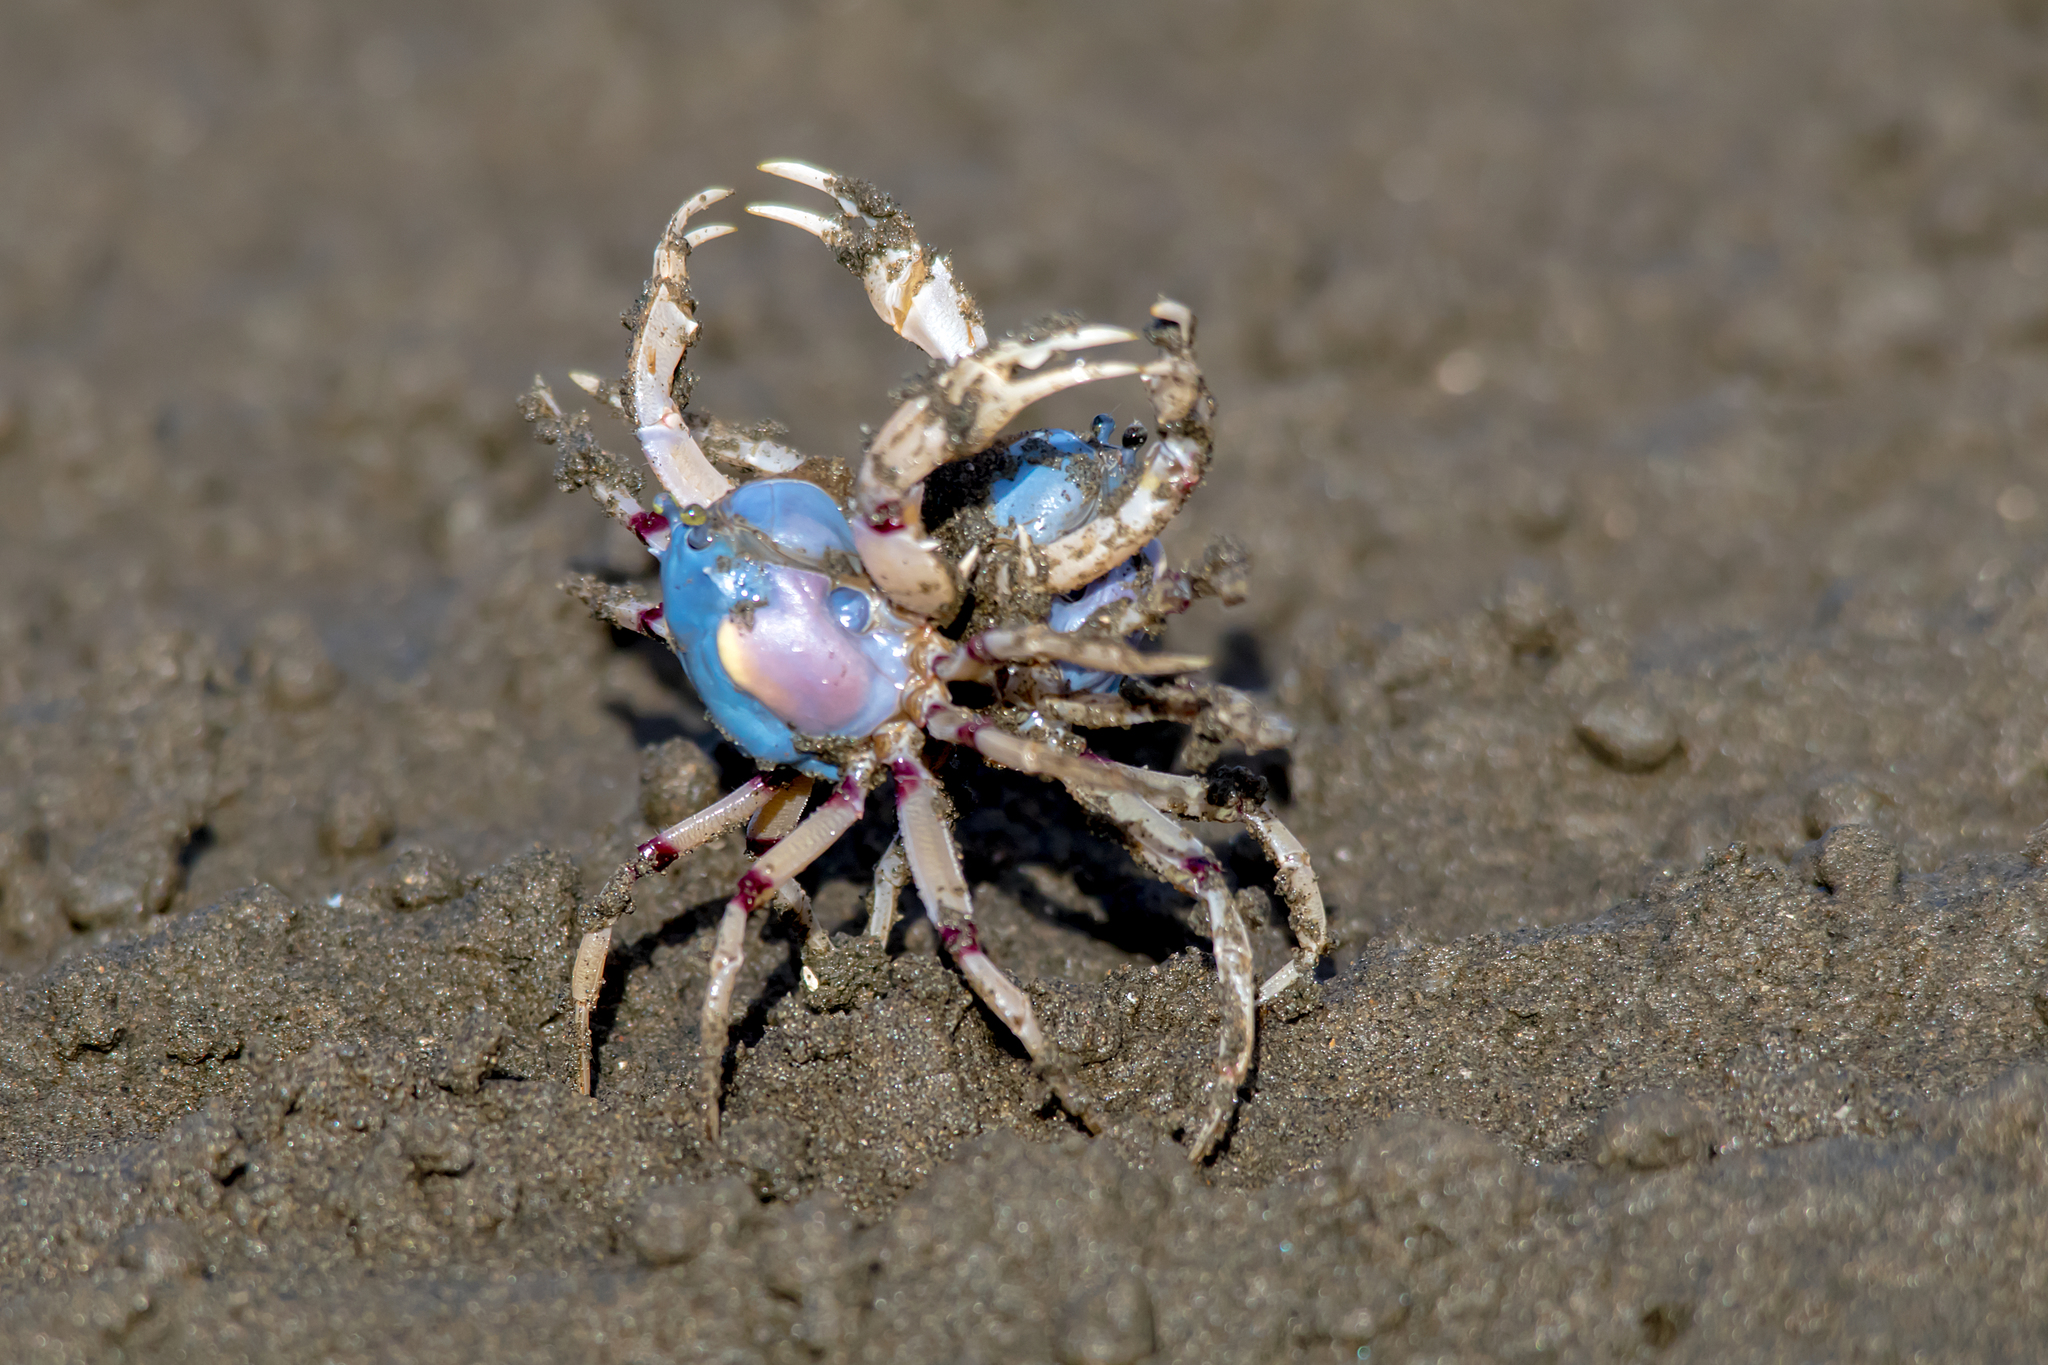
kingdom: Animalia
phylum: Arthropoda
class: Malacostraca
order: Decapoda
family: Mictyridae
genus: Mictyris
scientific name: Mictyris longicarpus
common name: Light-blue soldier crab
